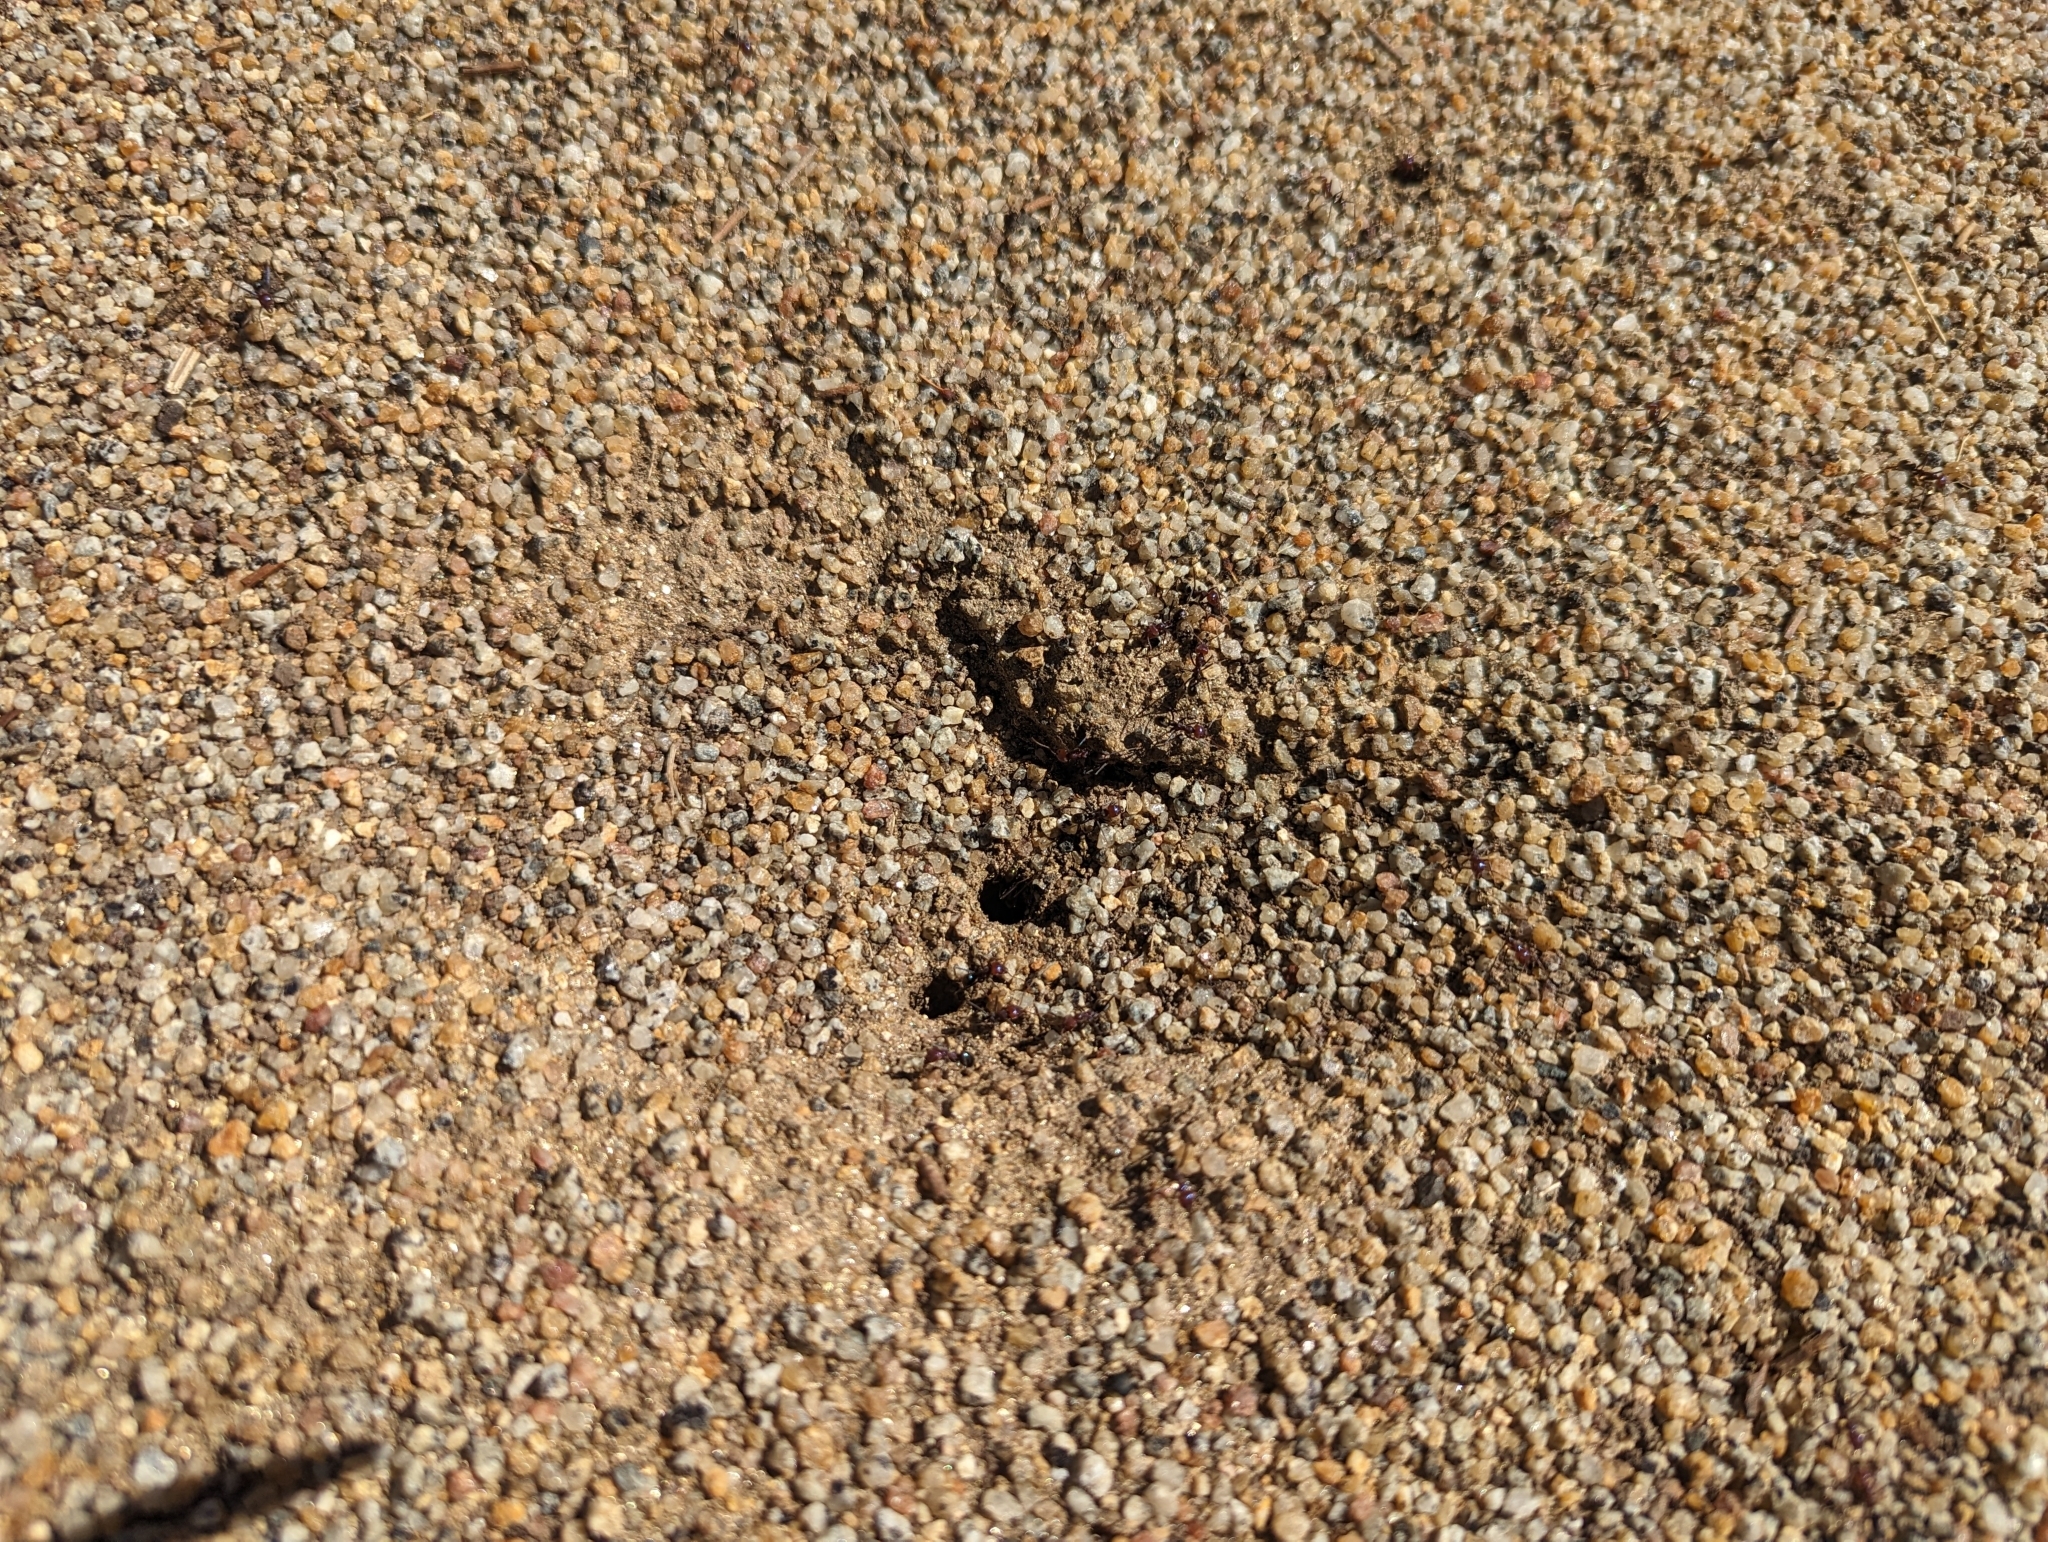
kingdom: Animalia
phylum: Arthropoda
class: Insecta
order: Hymenoptera
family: Formicidae
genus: Iridomyrmex
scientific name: Iridomyrmex purpureus
